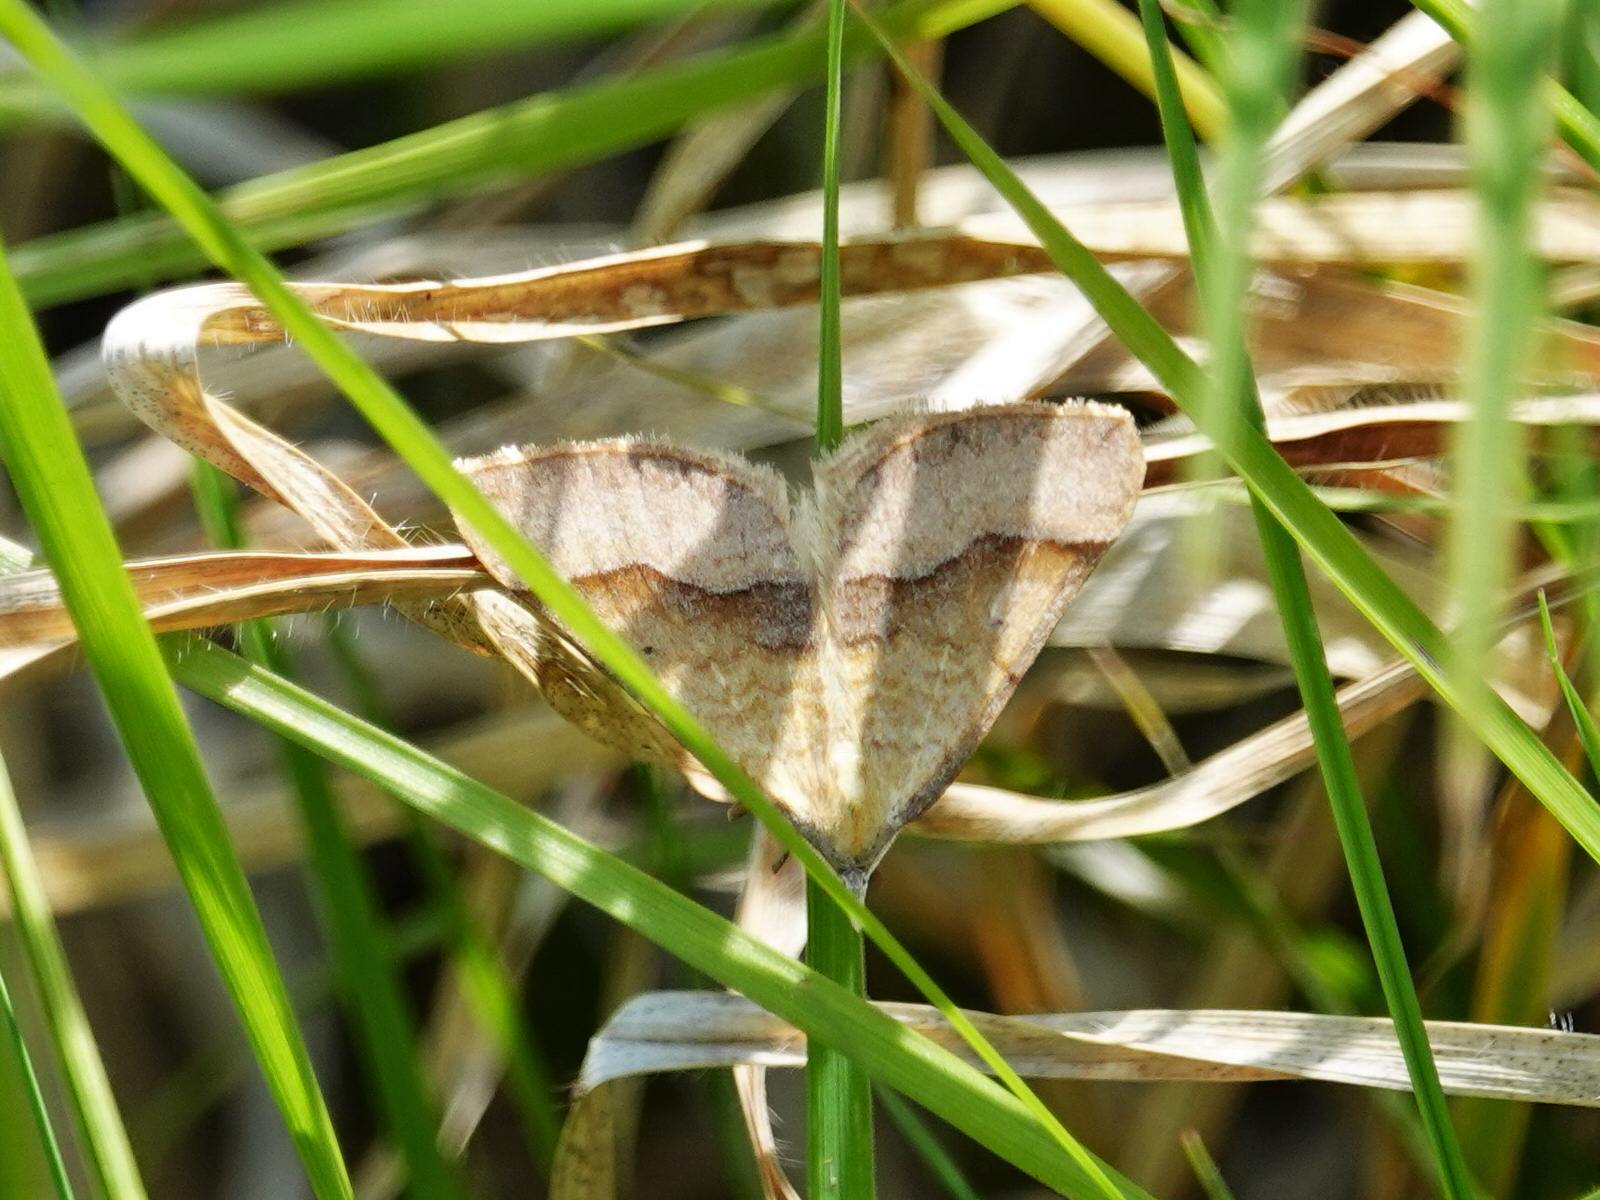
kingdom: Animalia
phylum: Arthropoda
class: Insecta
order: Lepidoptera
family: Geometridae
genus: Anachloris
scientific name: Anachloris subochraria
